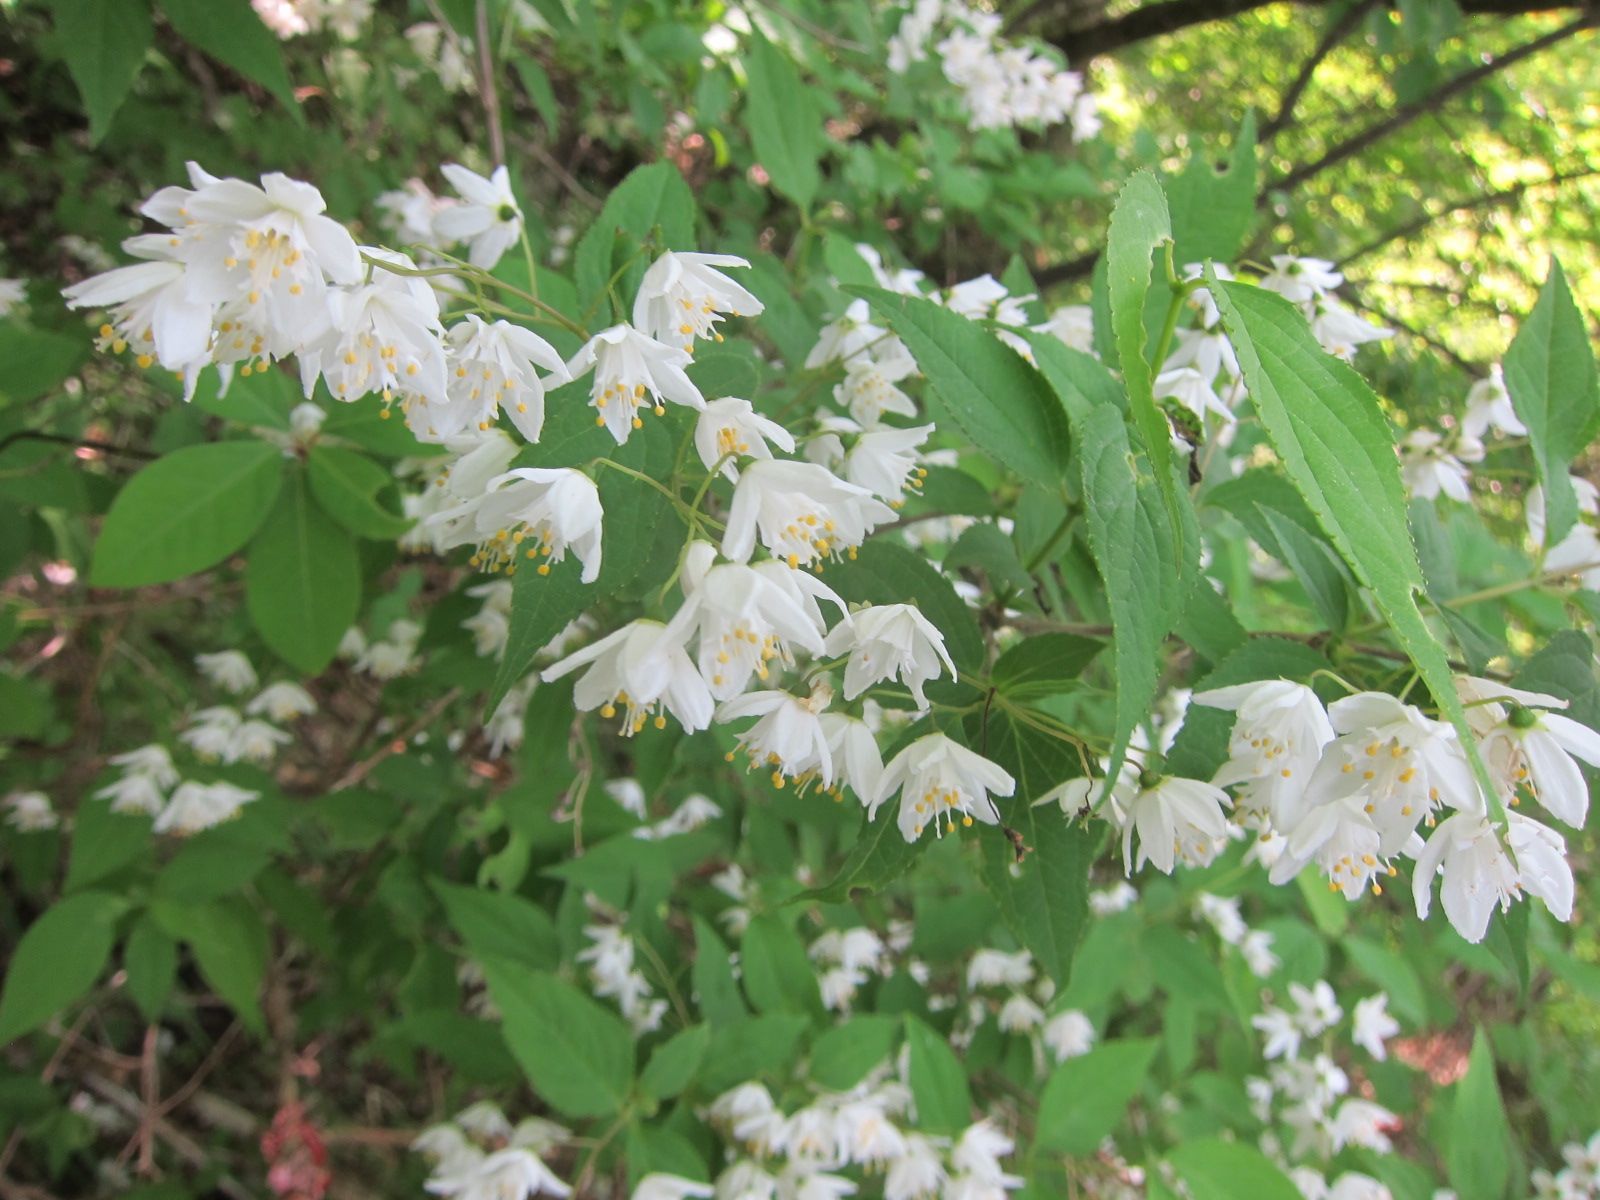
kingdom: Plantae
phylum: Tracheophyta
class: Magnoliopsida
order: Cornales
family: Hydrangeaceae
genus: Deutzia
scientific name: Deutzia gracilis
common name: Slender pride of rochester
